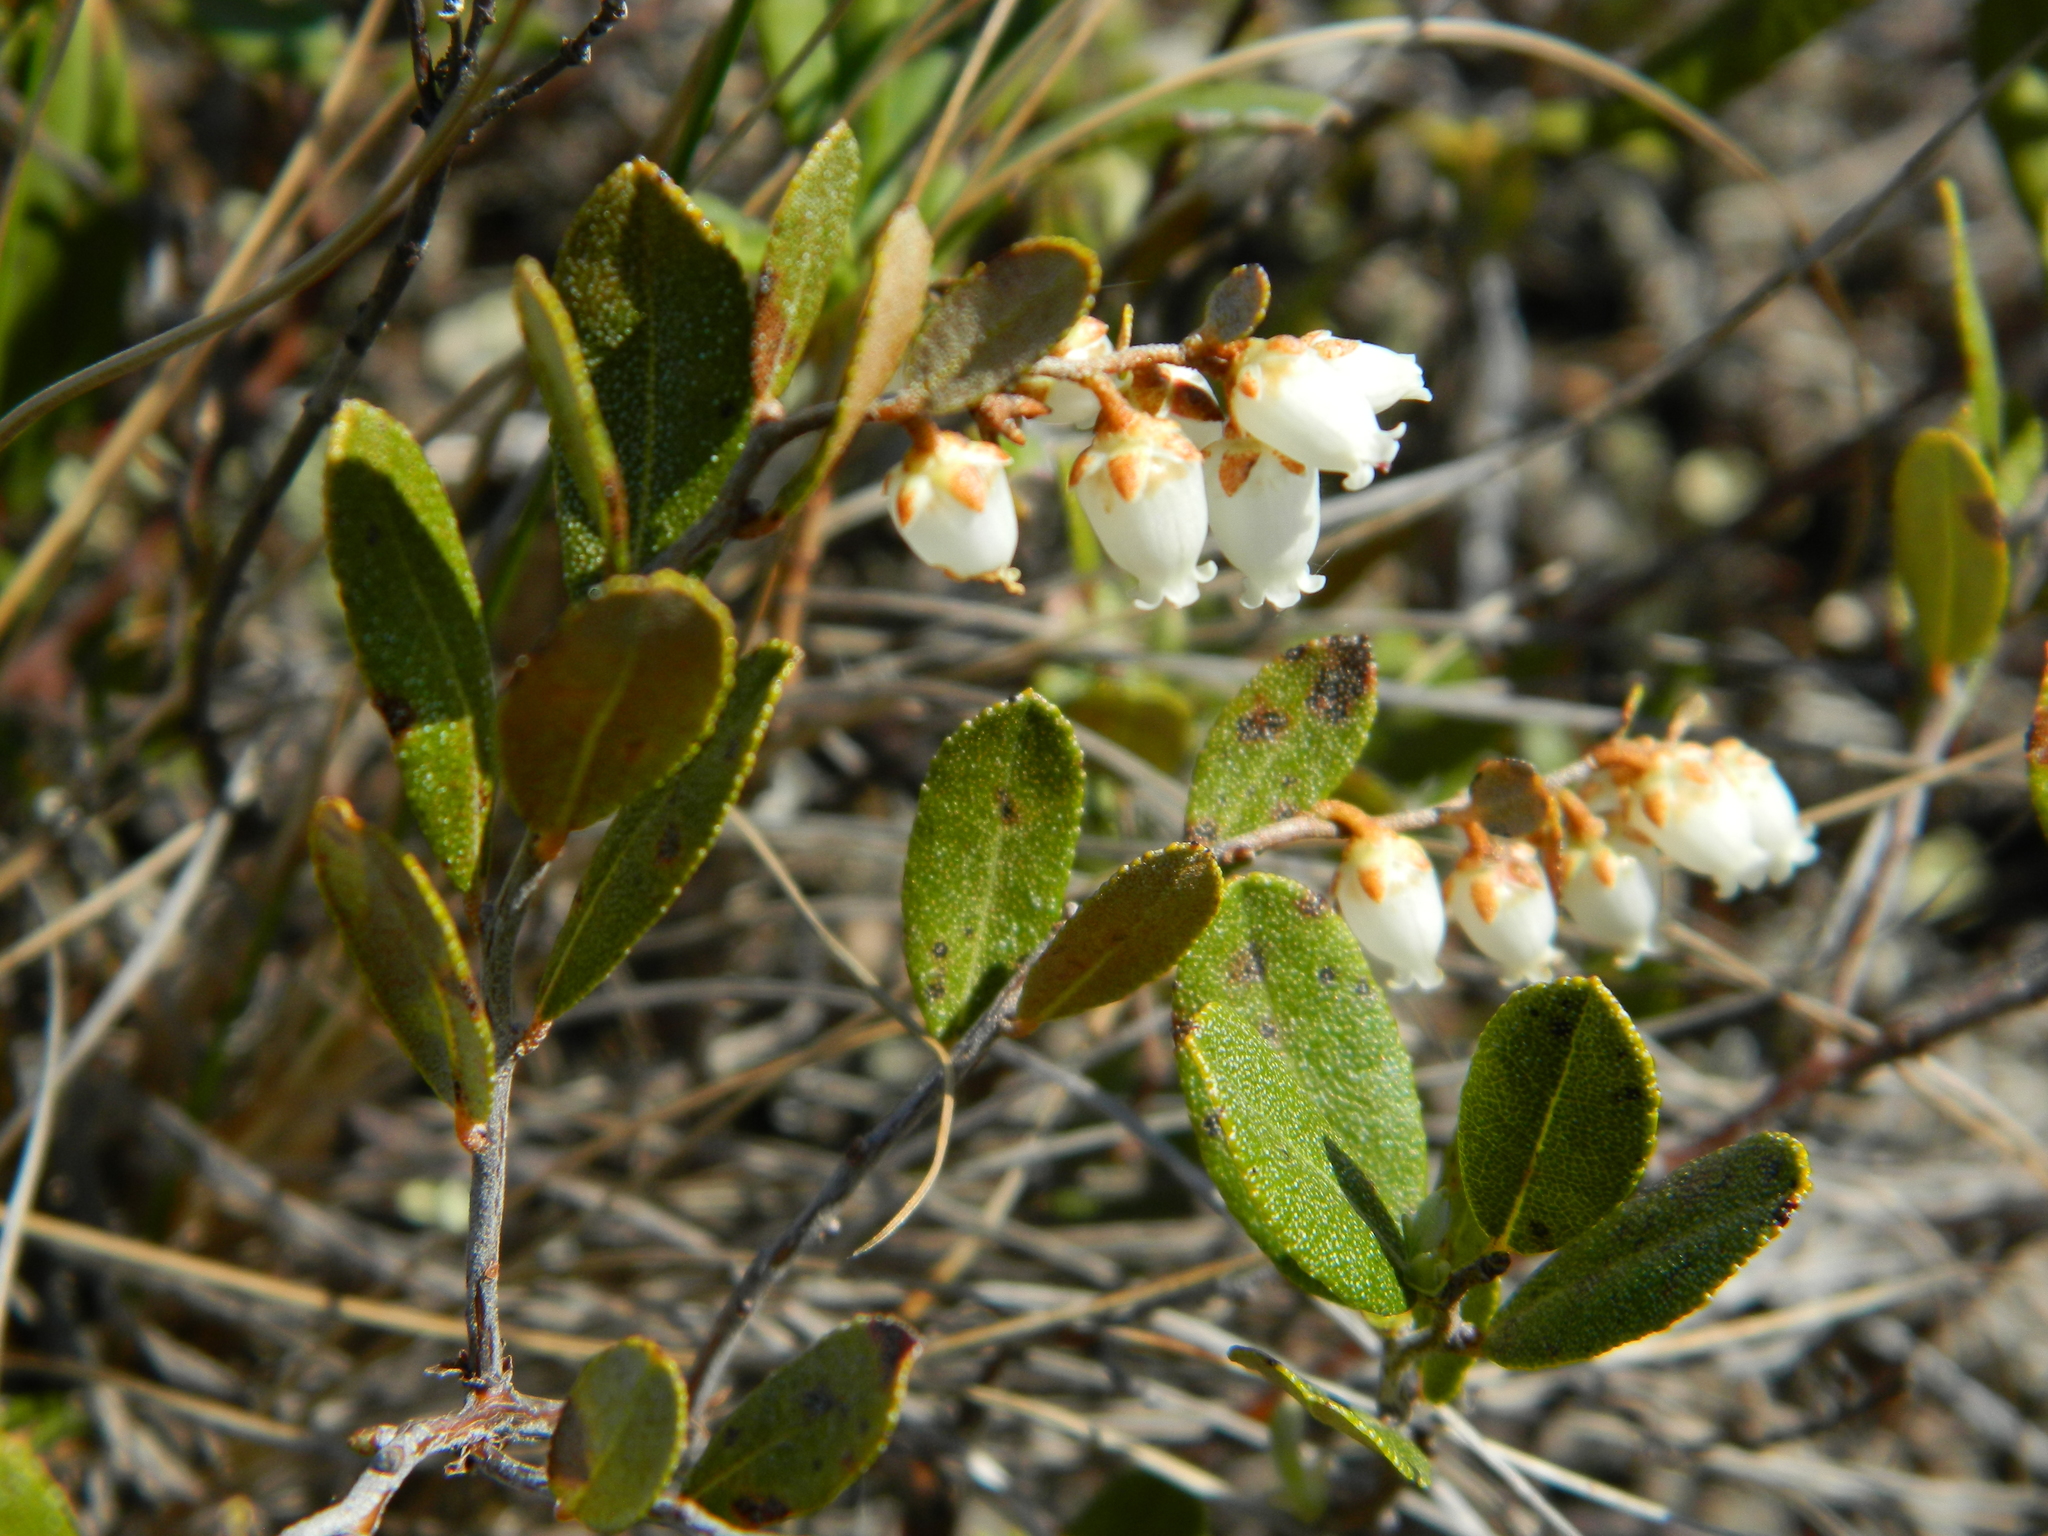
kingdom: Plantae
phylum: Tracheophyta
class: Magnoliopsida
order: Ericales
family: Ericaceae
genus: Chamaedaphne
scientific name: Chamaedaphne calyculata
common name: Leatherleaf
